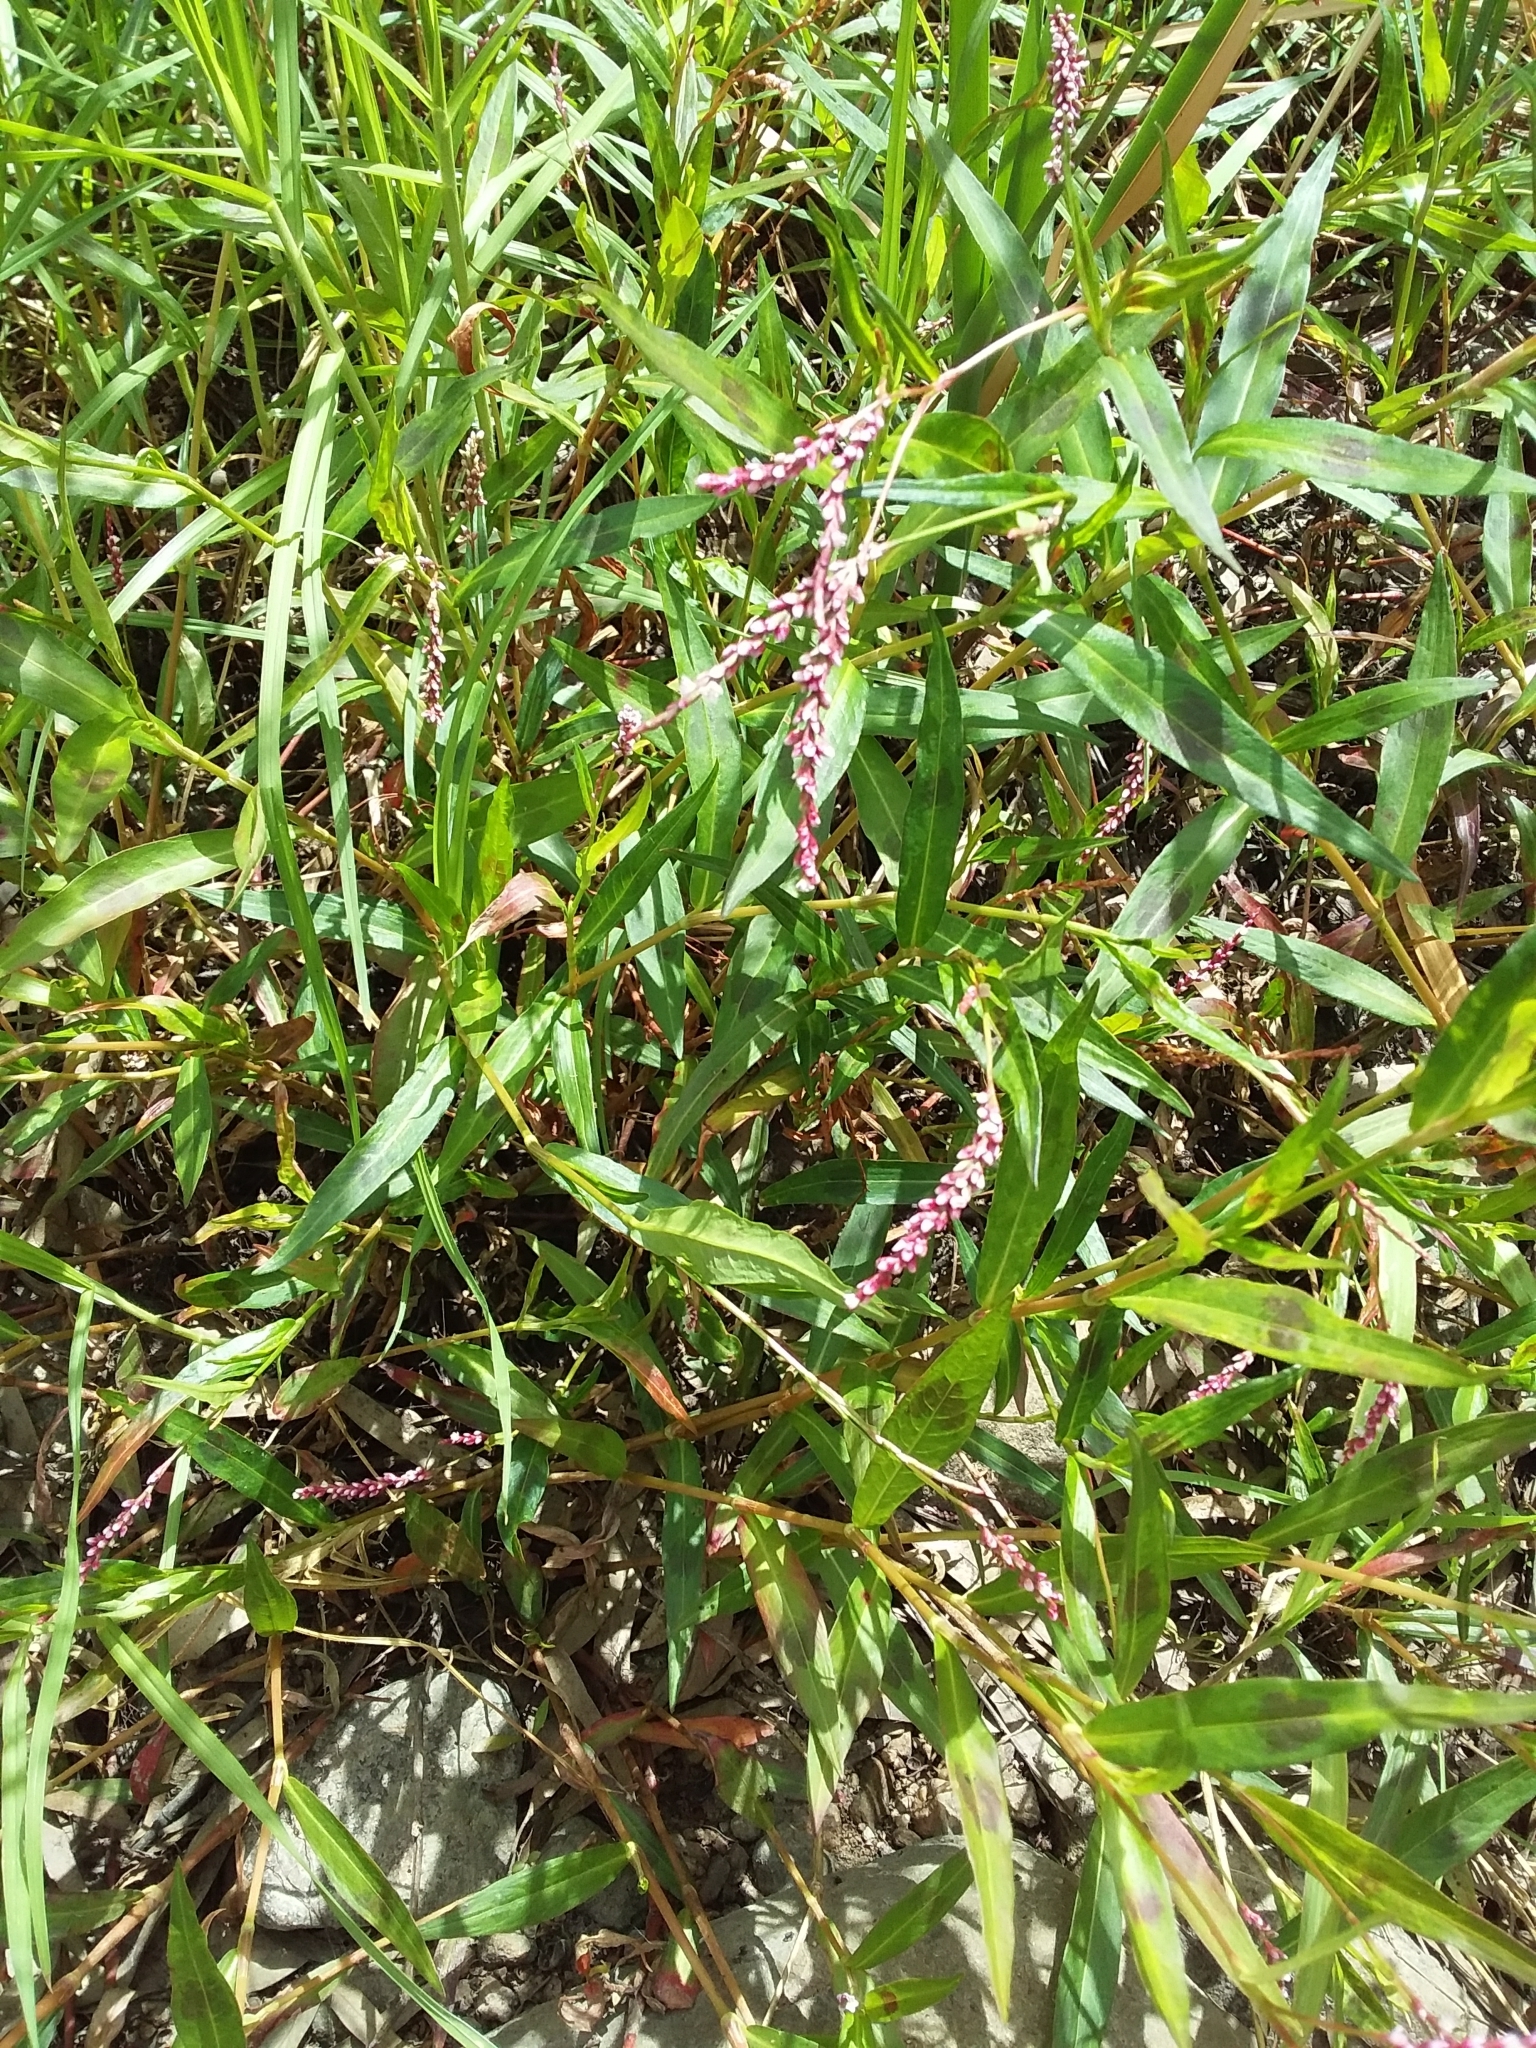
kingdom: Plantae
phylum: Tracheophyta
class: Magnoliopsida
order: Caryophyllales
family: Polygonaceae
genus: Persicaria
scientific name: Persicaria decipiens
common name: Willow-weed
